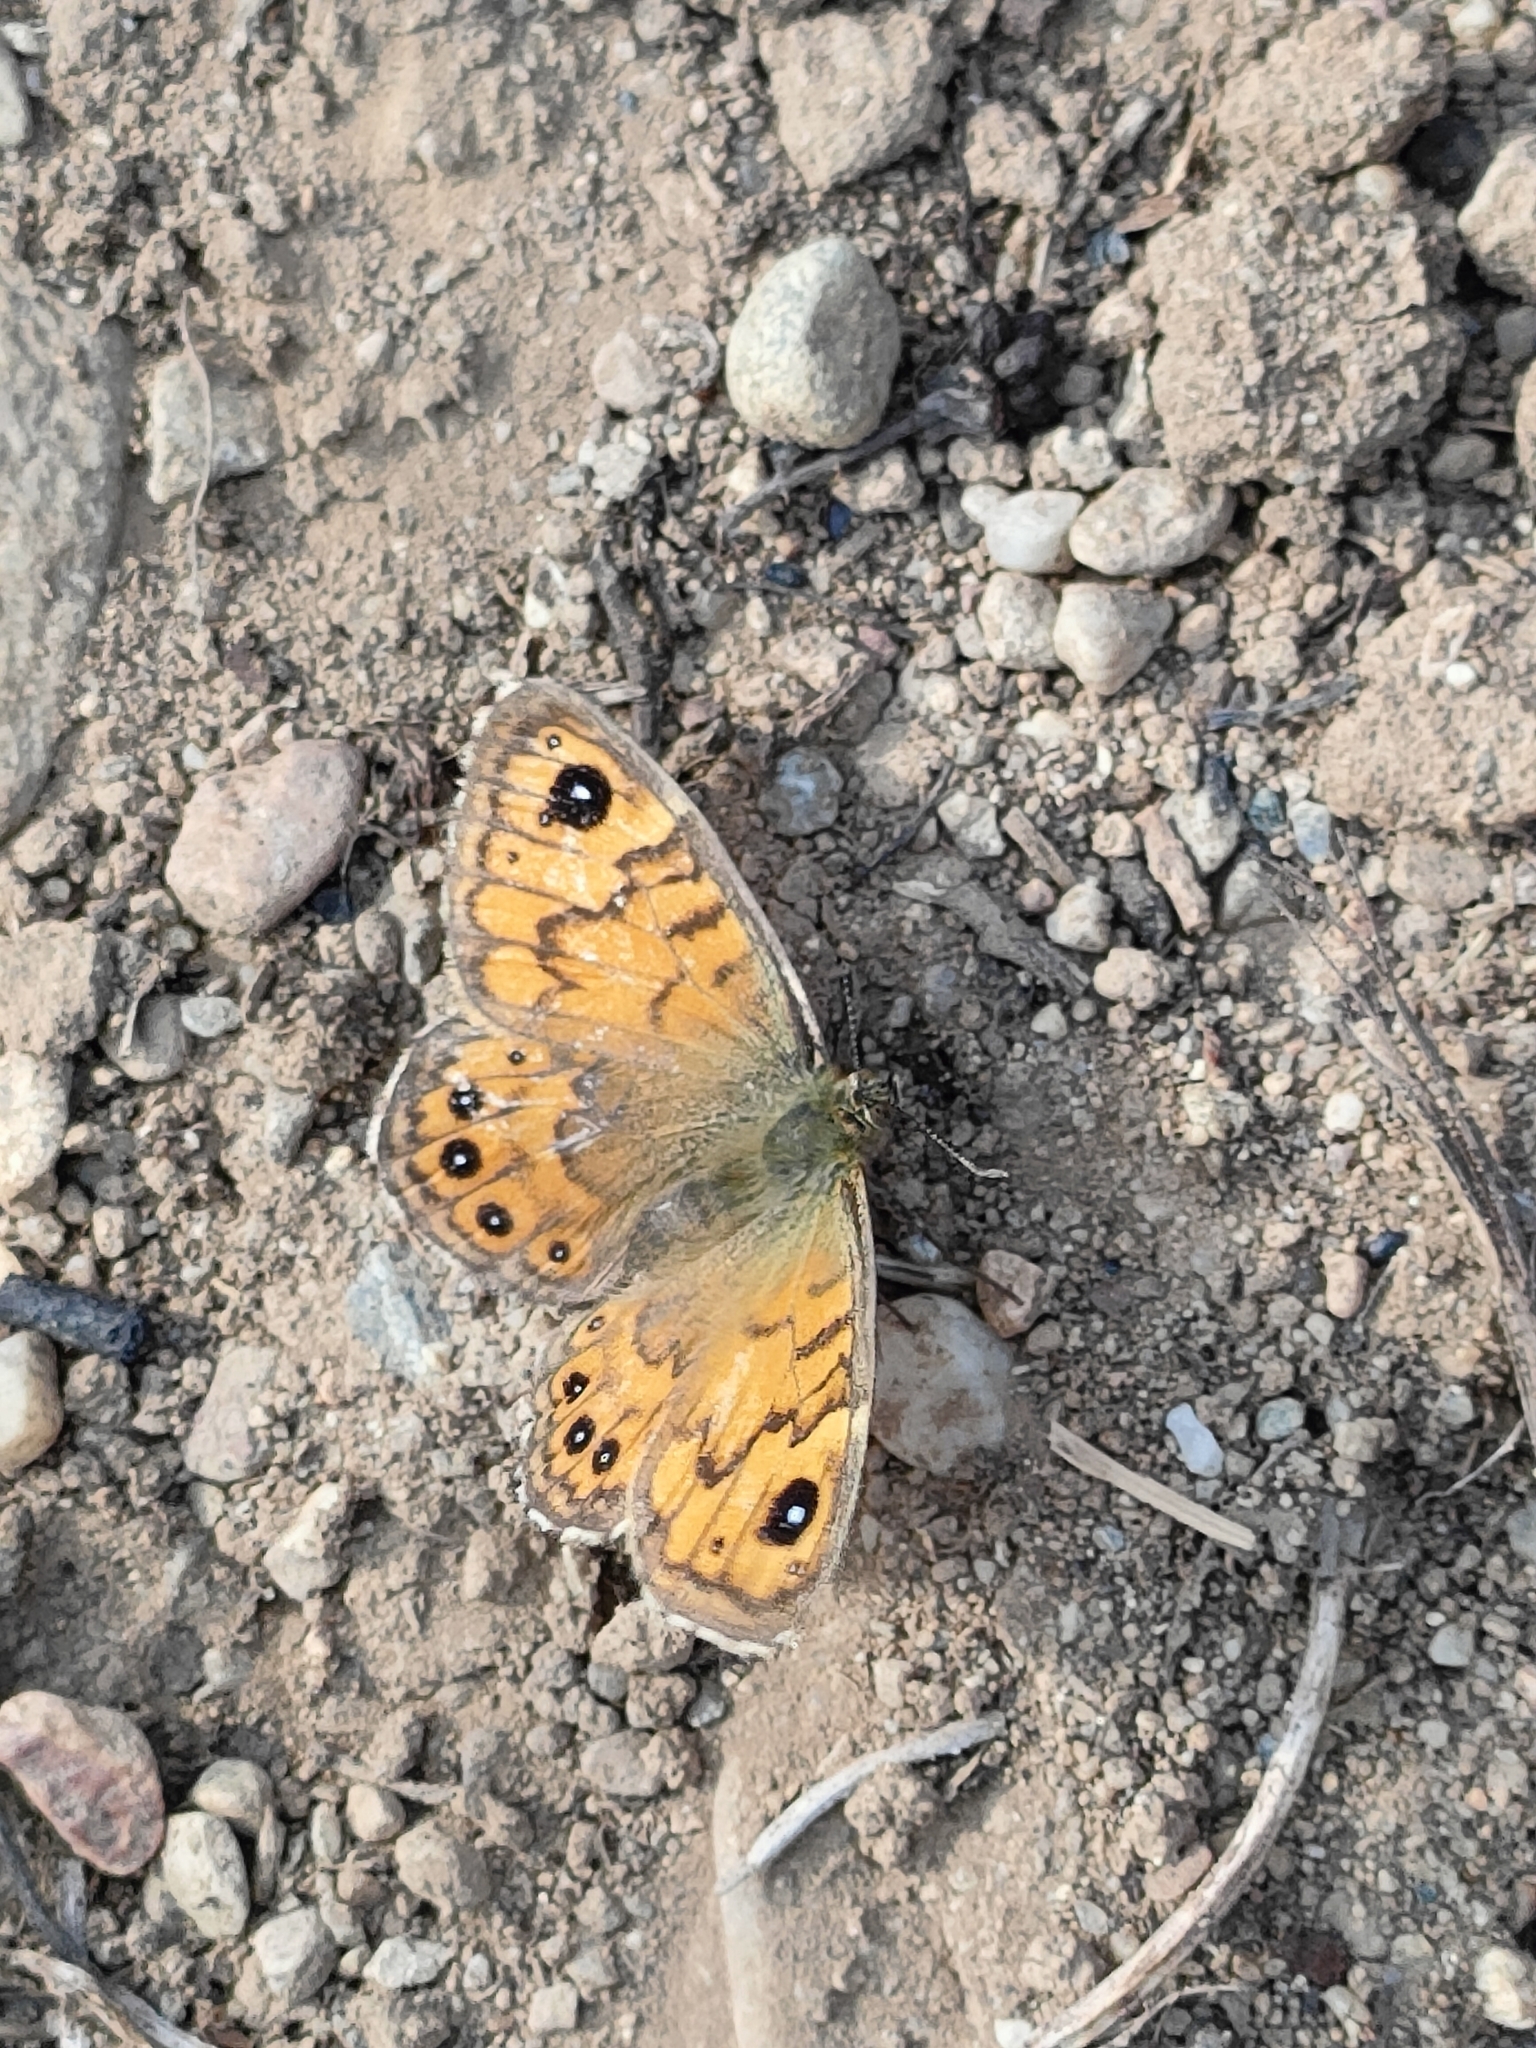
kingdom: Animalia
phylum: Arthropoda
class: Insecta
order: Lepidoptera
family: Nymphalidae
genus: Pararge
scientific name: Pararge Lasiommata megera
